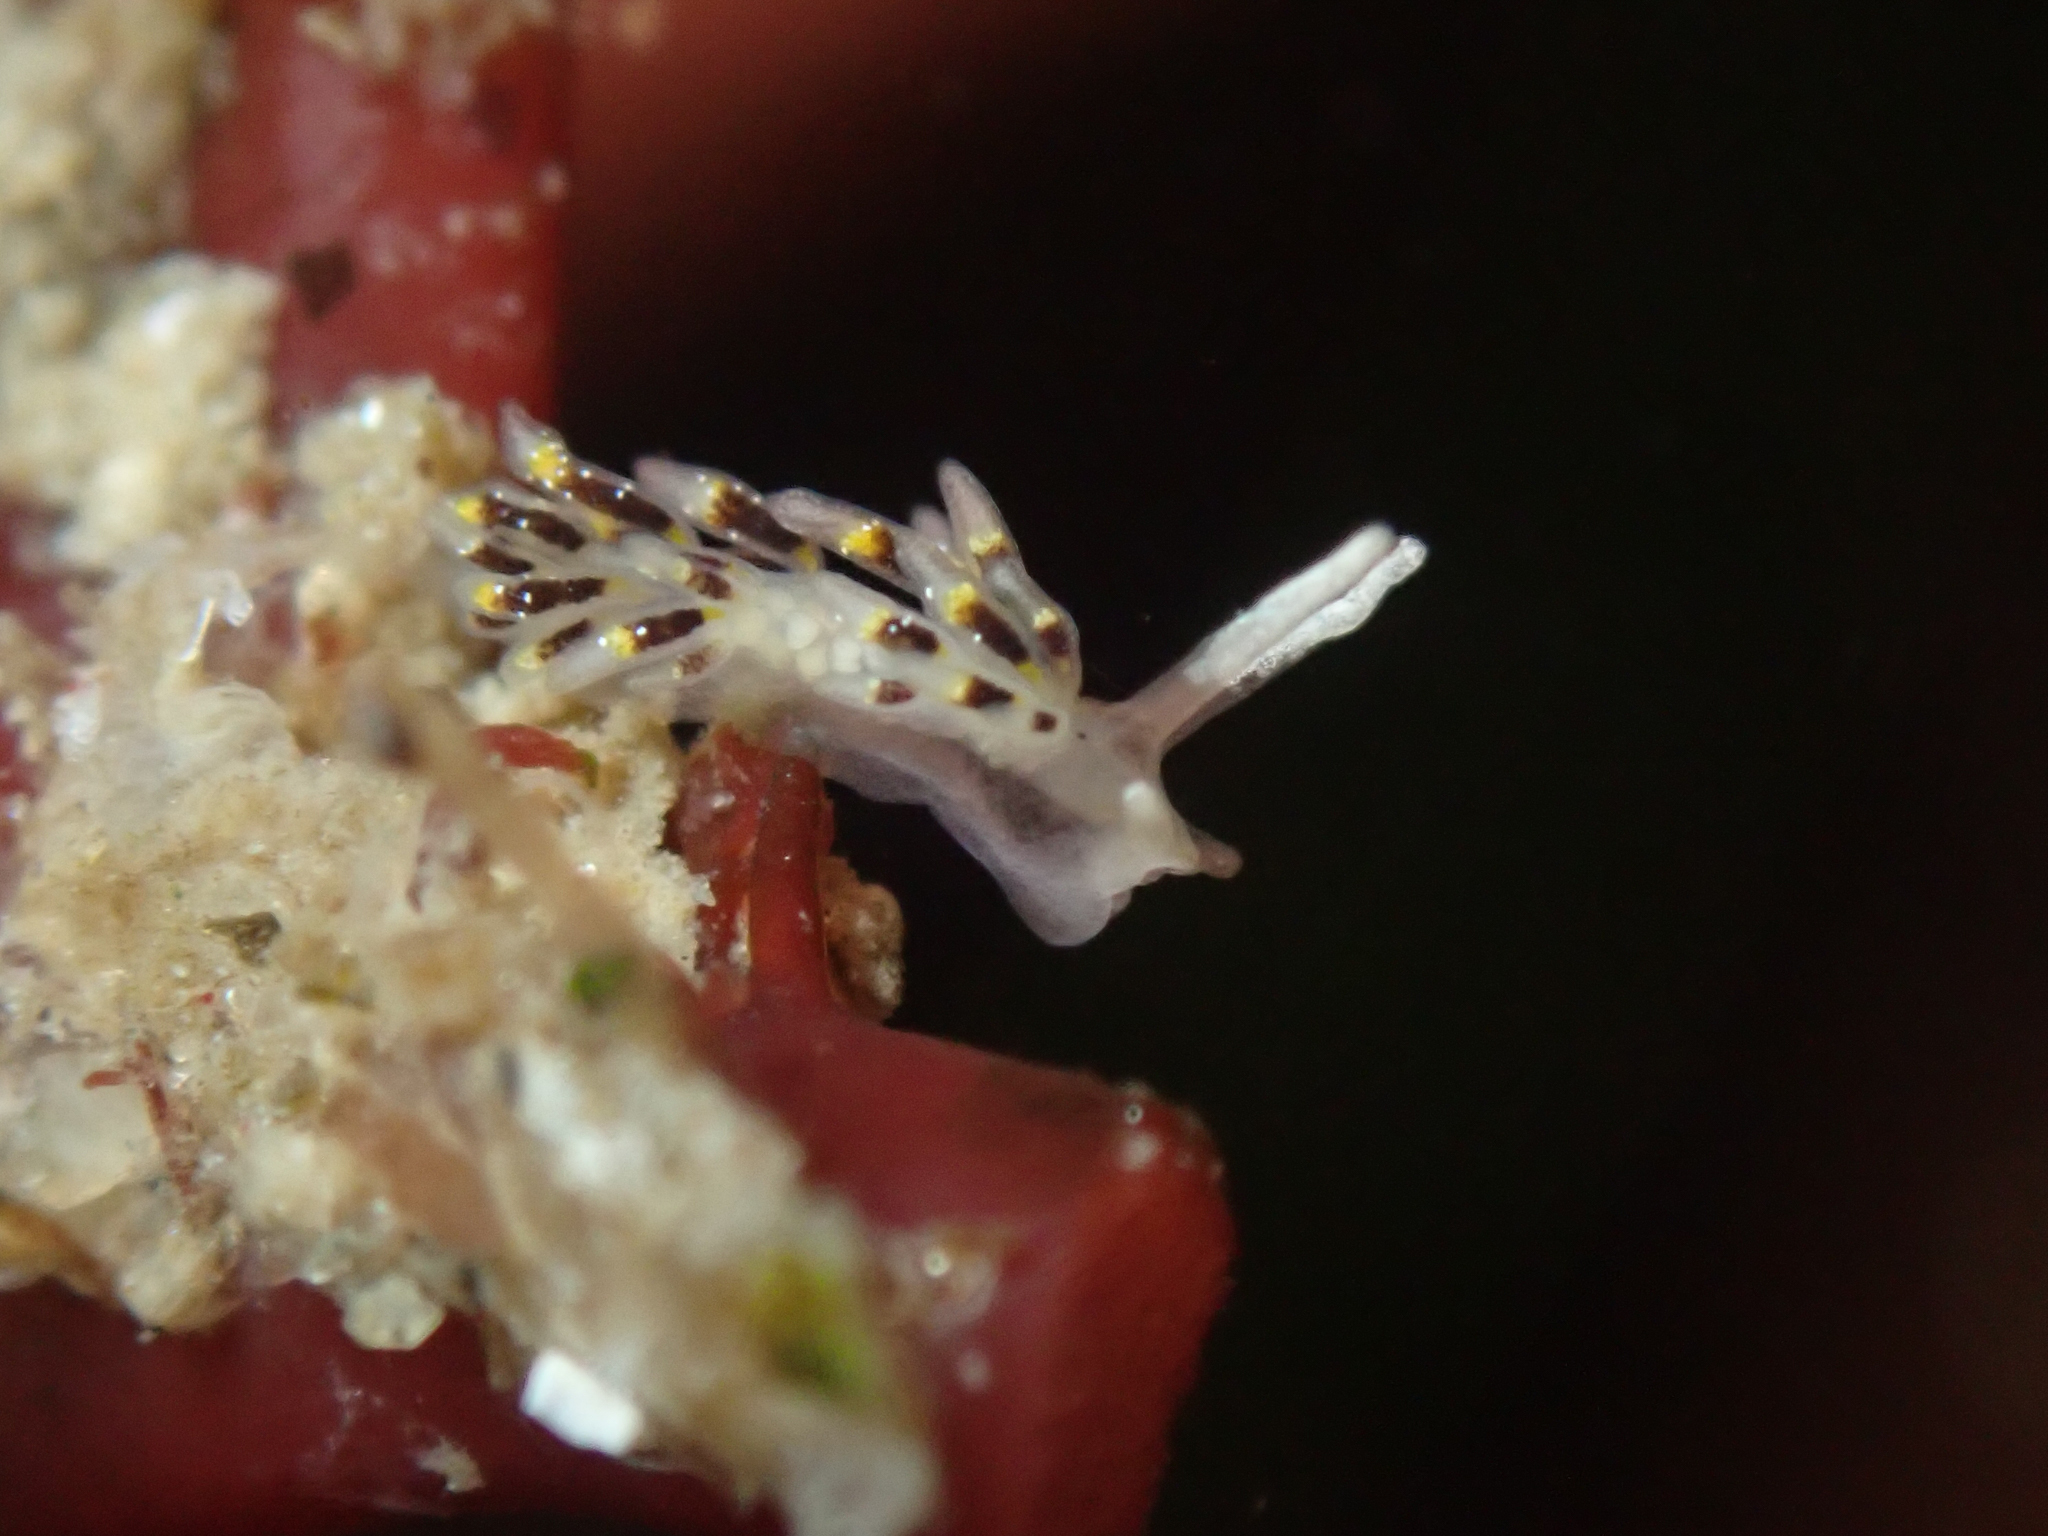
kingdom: Animalia
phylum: Mollusca
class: Gastropoda
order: Nudibranchia
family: Trinchesiidae
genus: Zelentia
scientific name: Zelentia fulgens
